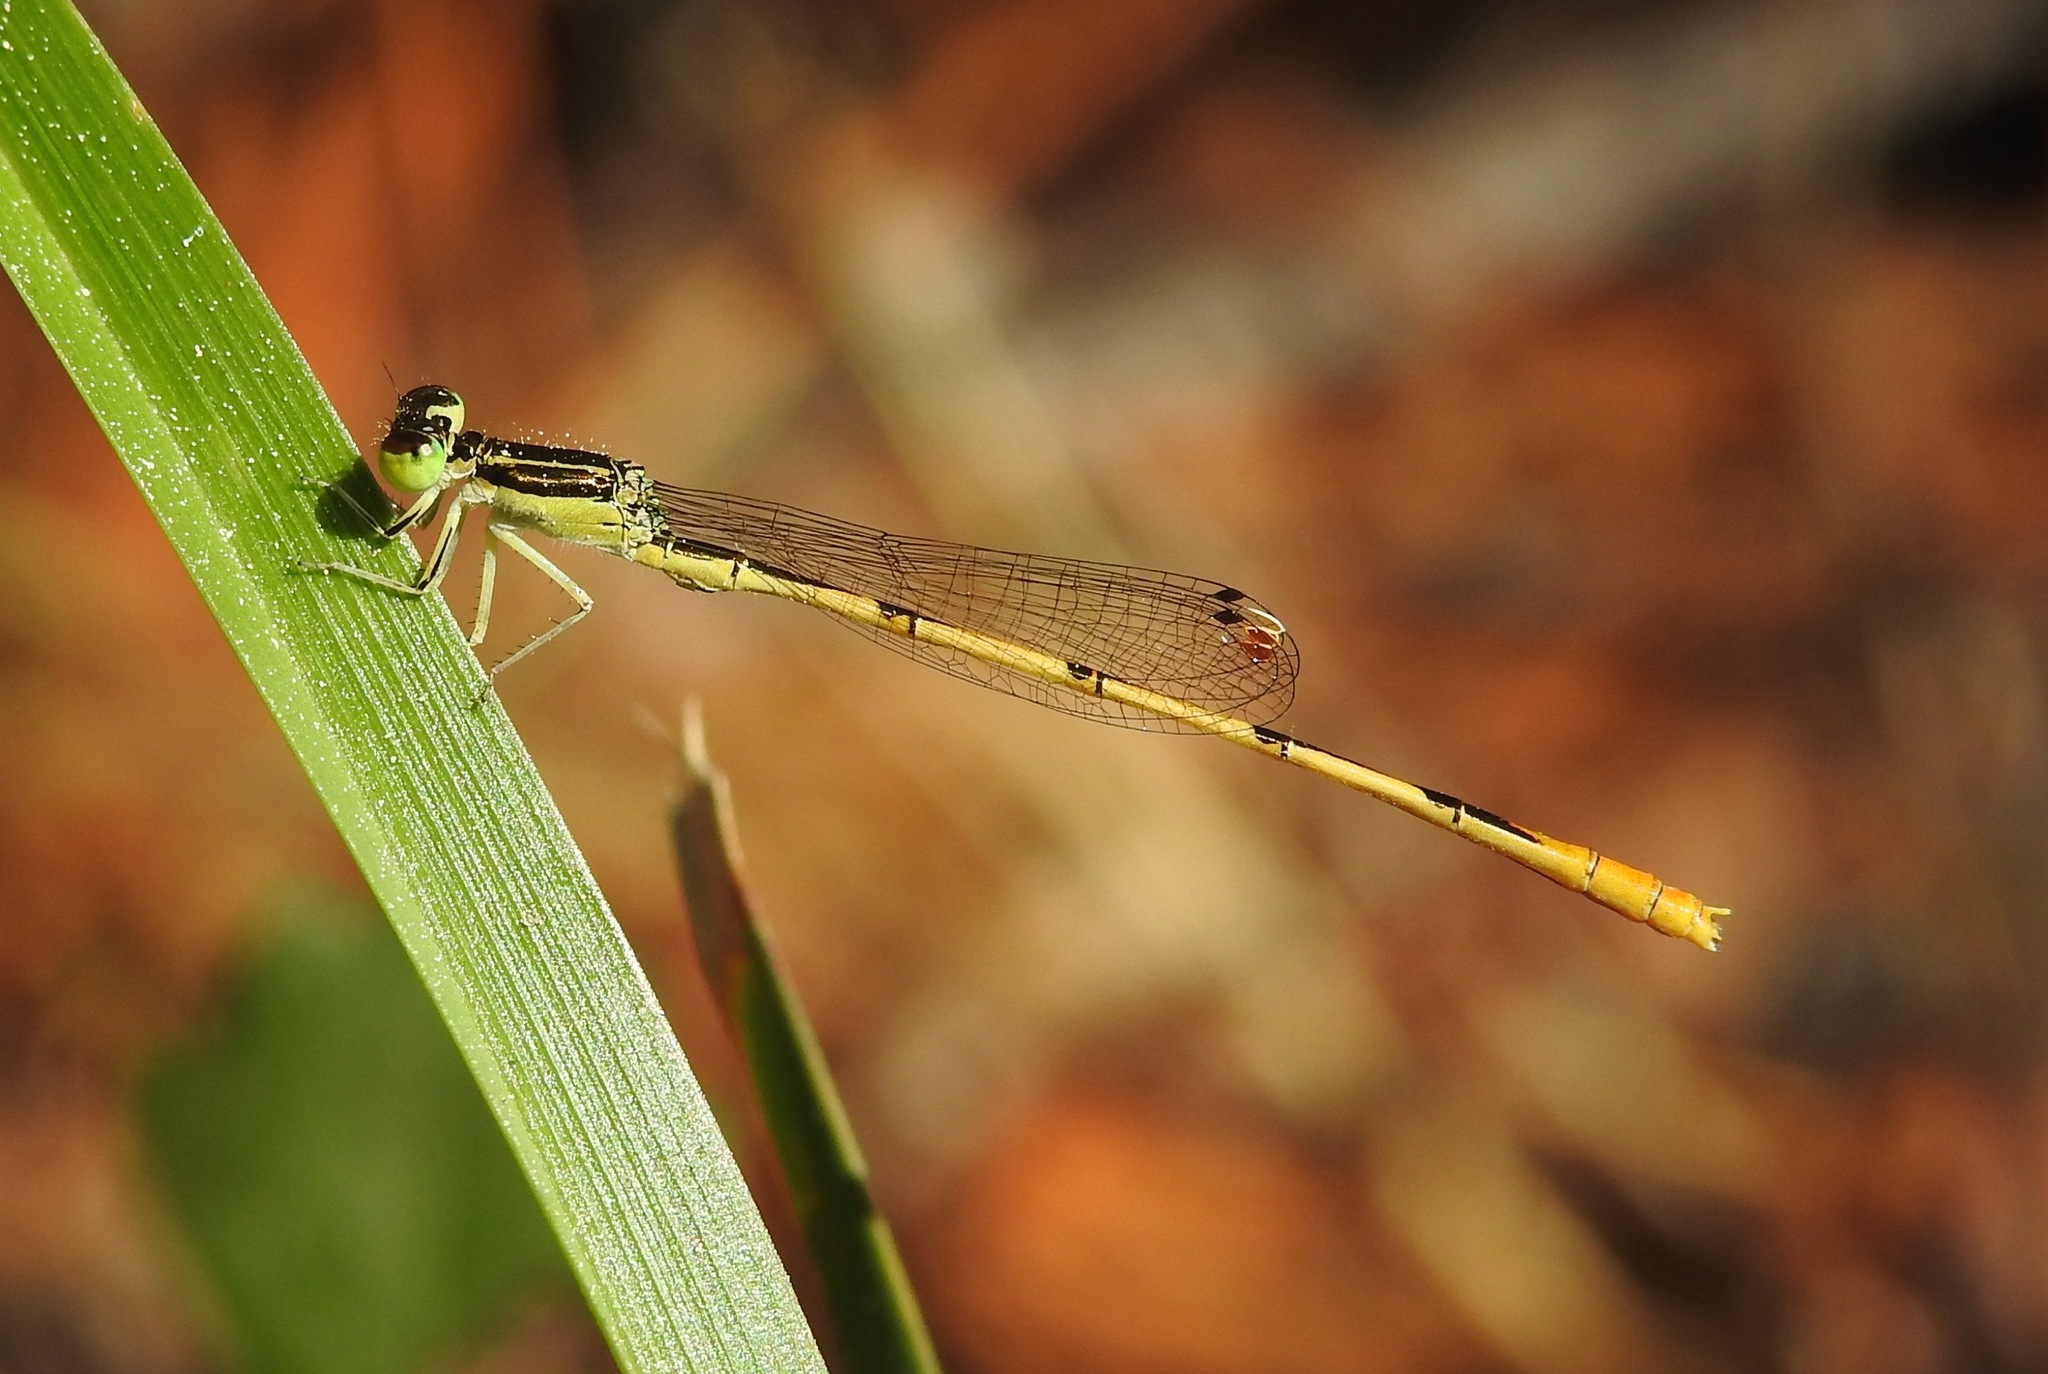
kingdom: Animalia
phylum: Arthropoda
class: Insecta
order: Odonata
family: Coenagrionidae
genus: Ischnura
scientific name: Ischnura hastata
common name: Citrine forktail
